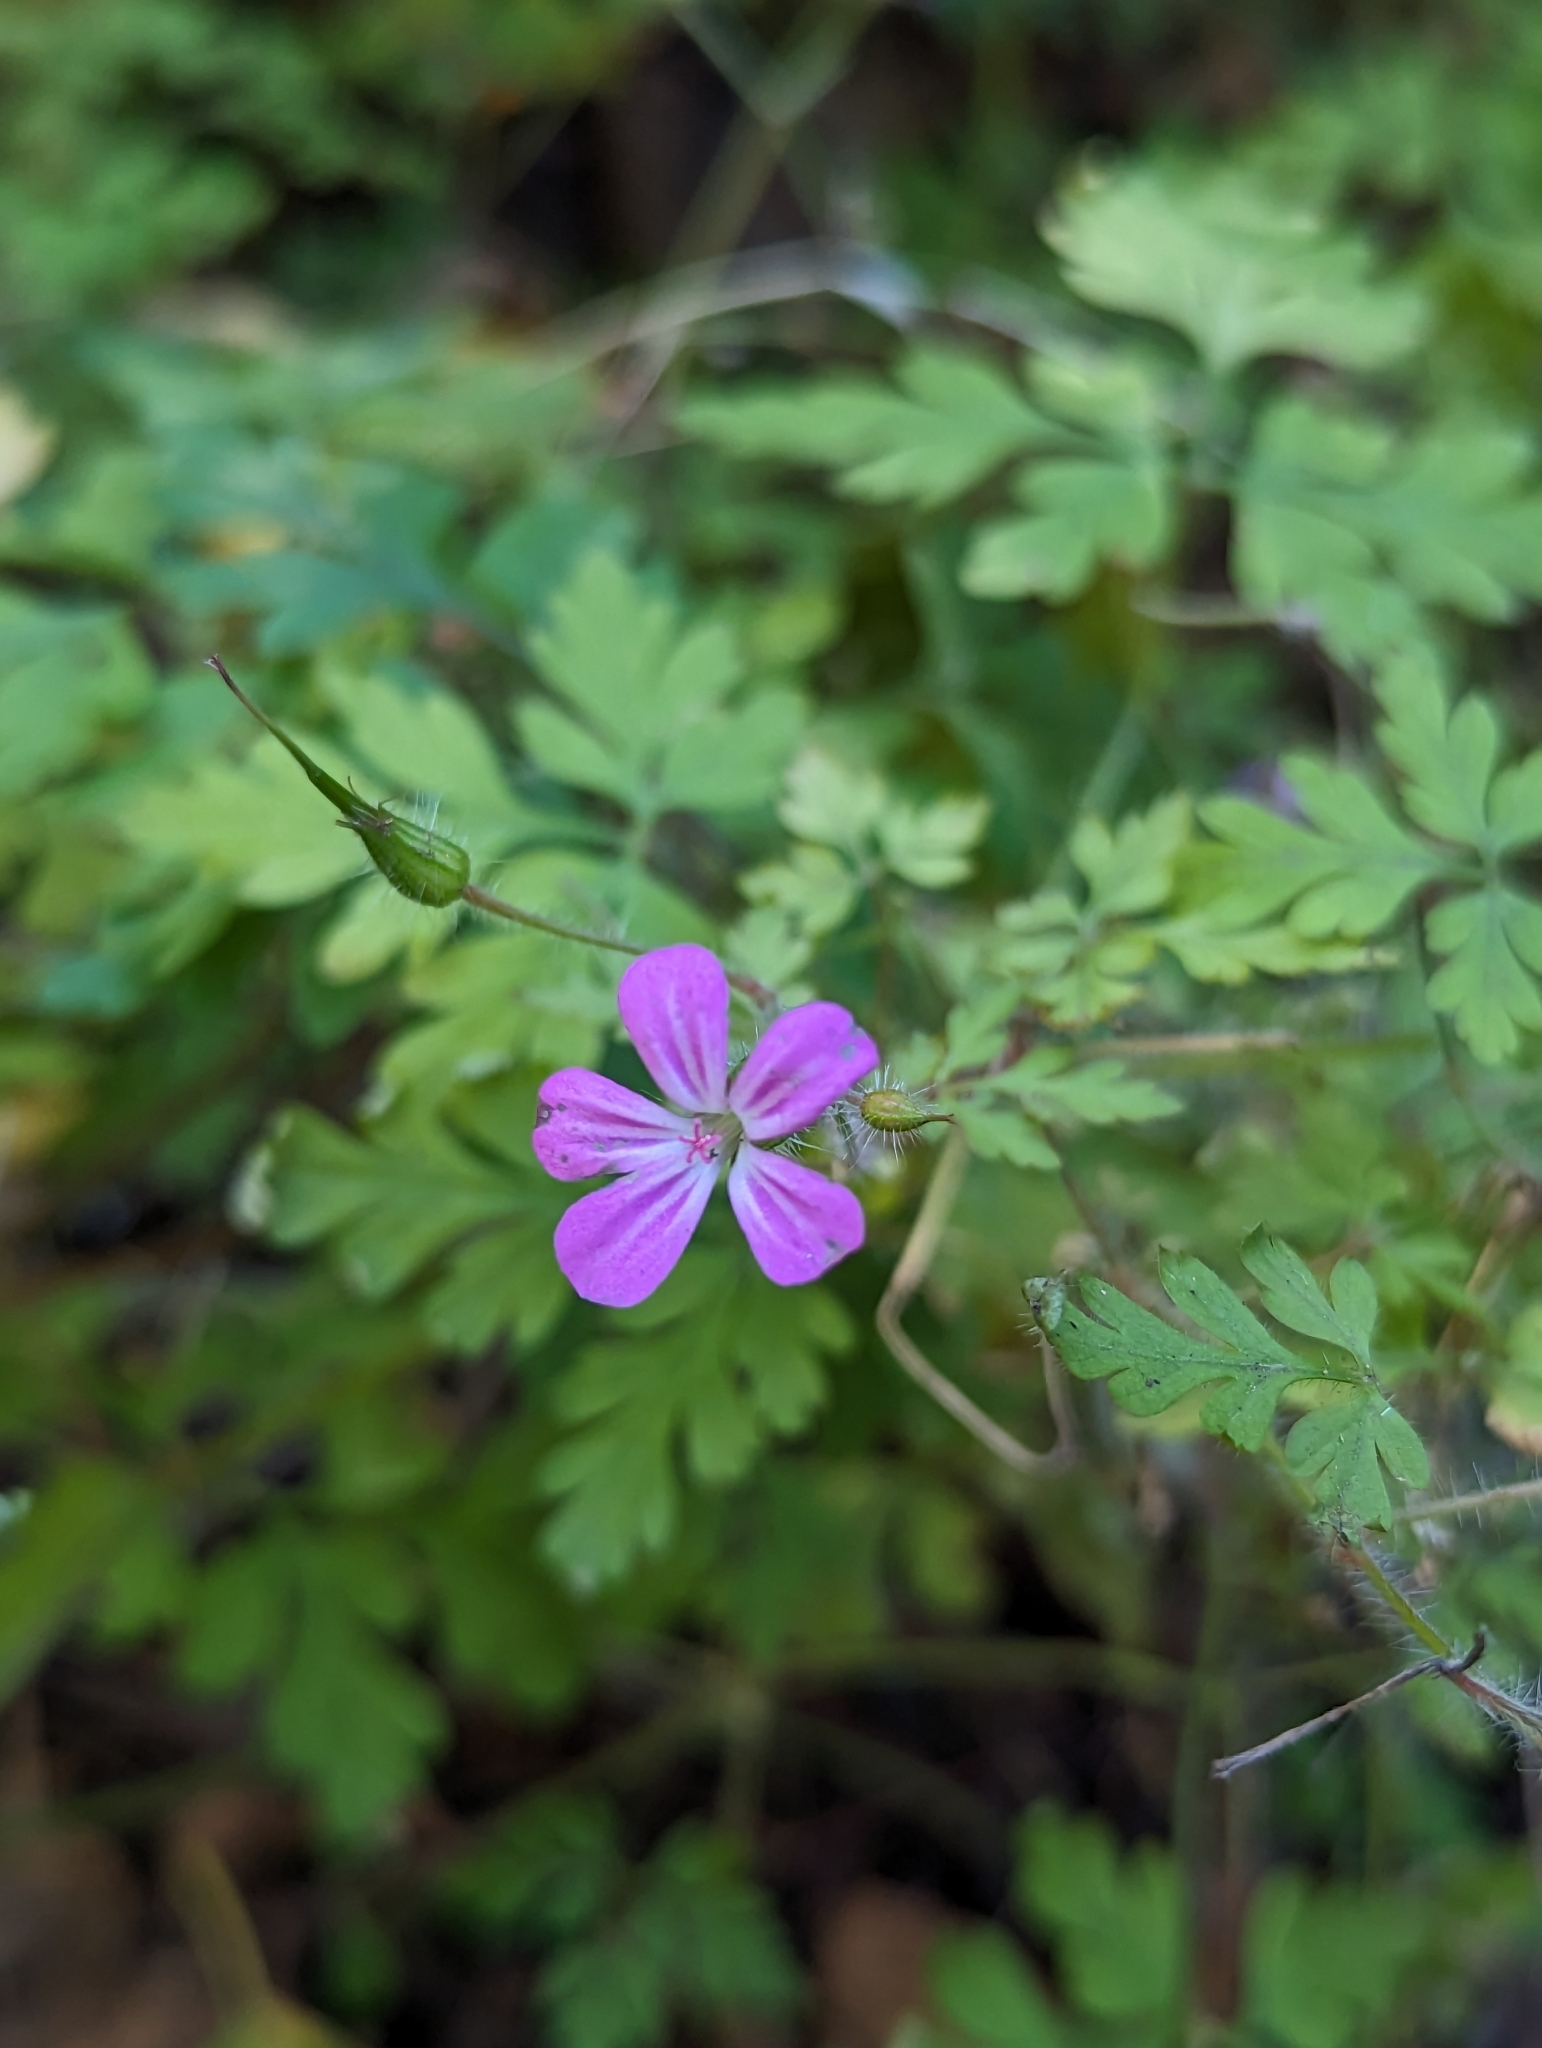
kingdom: Plantae
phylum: Tracheophyta
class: Magnoliopsida
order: Geraniales
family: Geraniaceae
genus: Geranium
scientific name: Geranium robertianum
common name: Herb-robert
